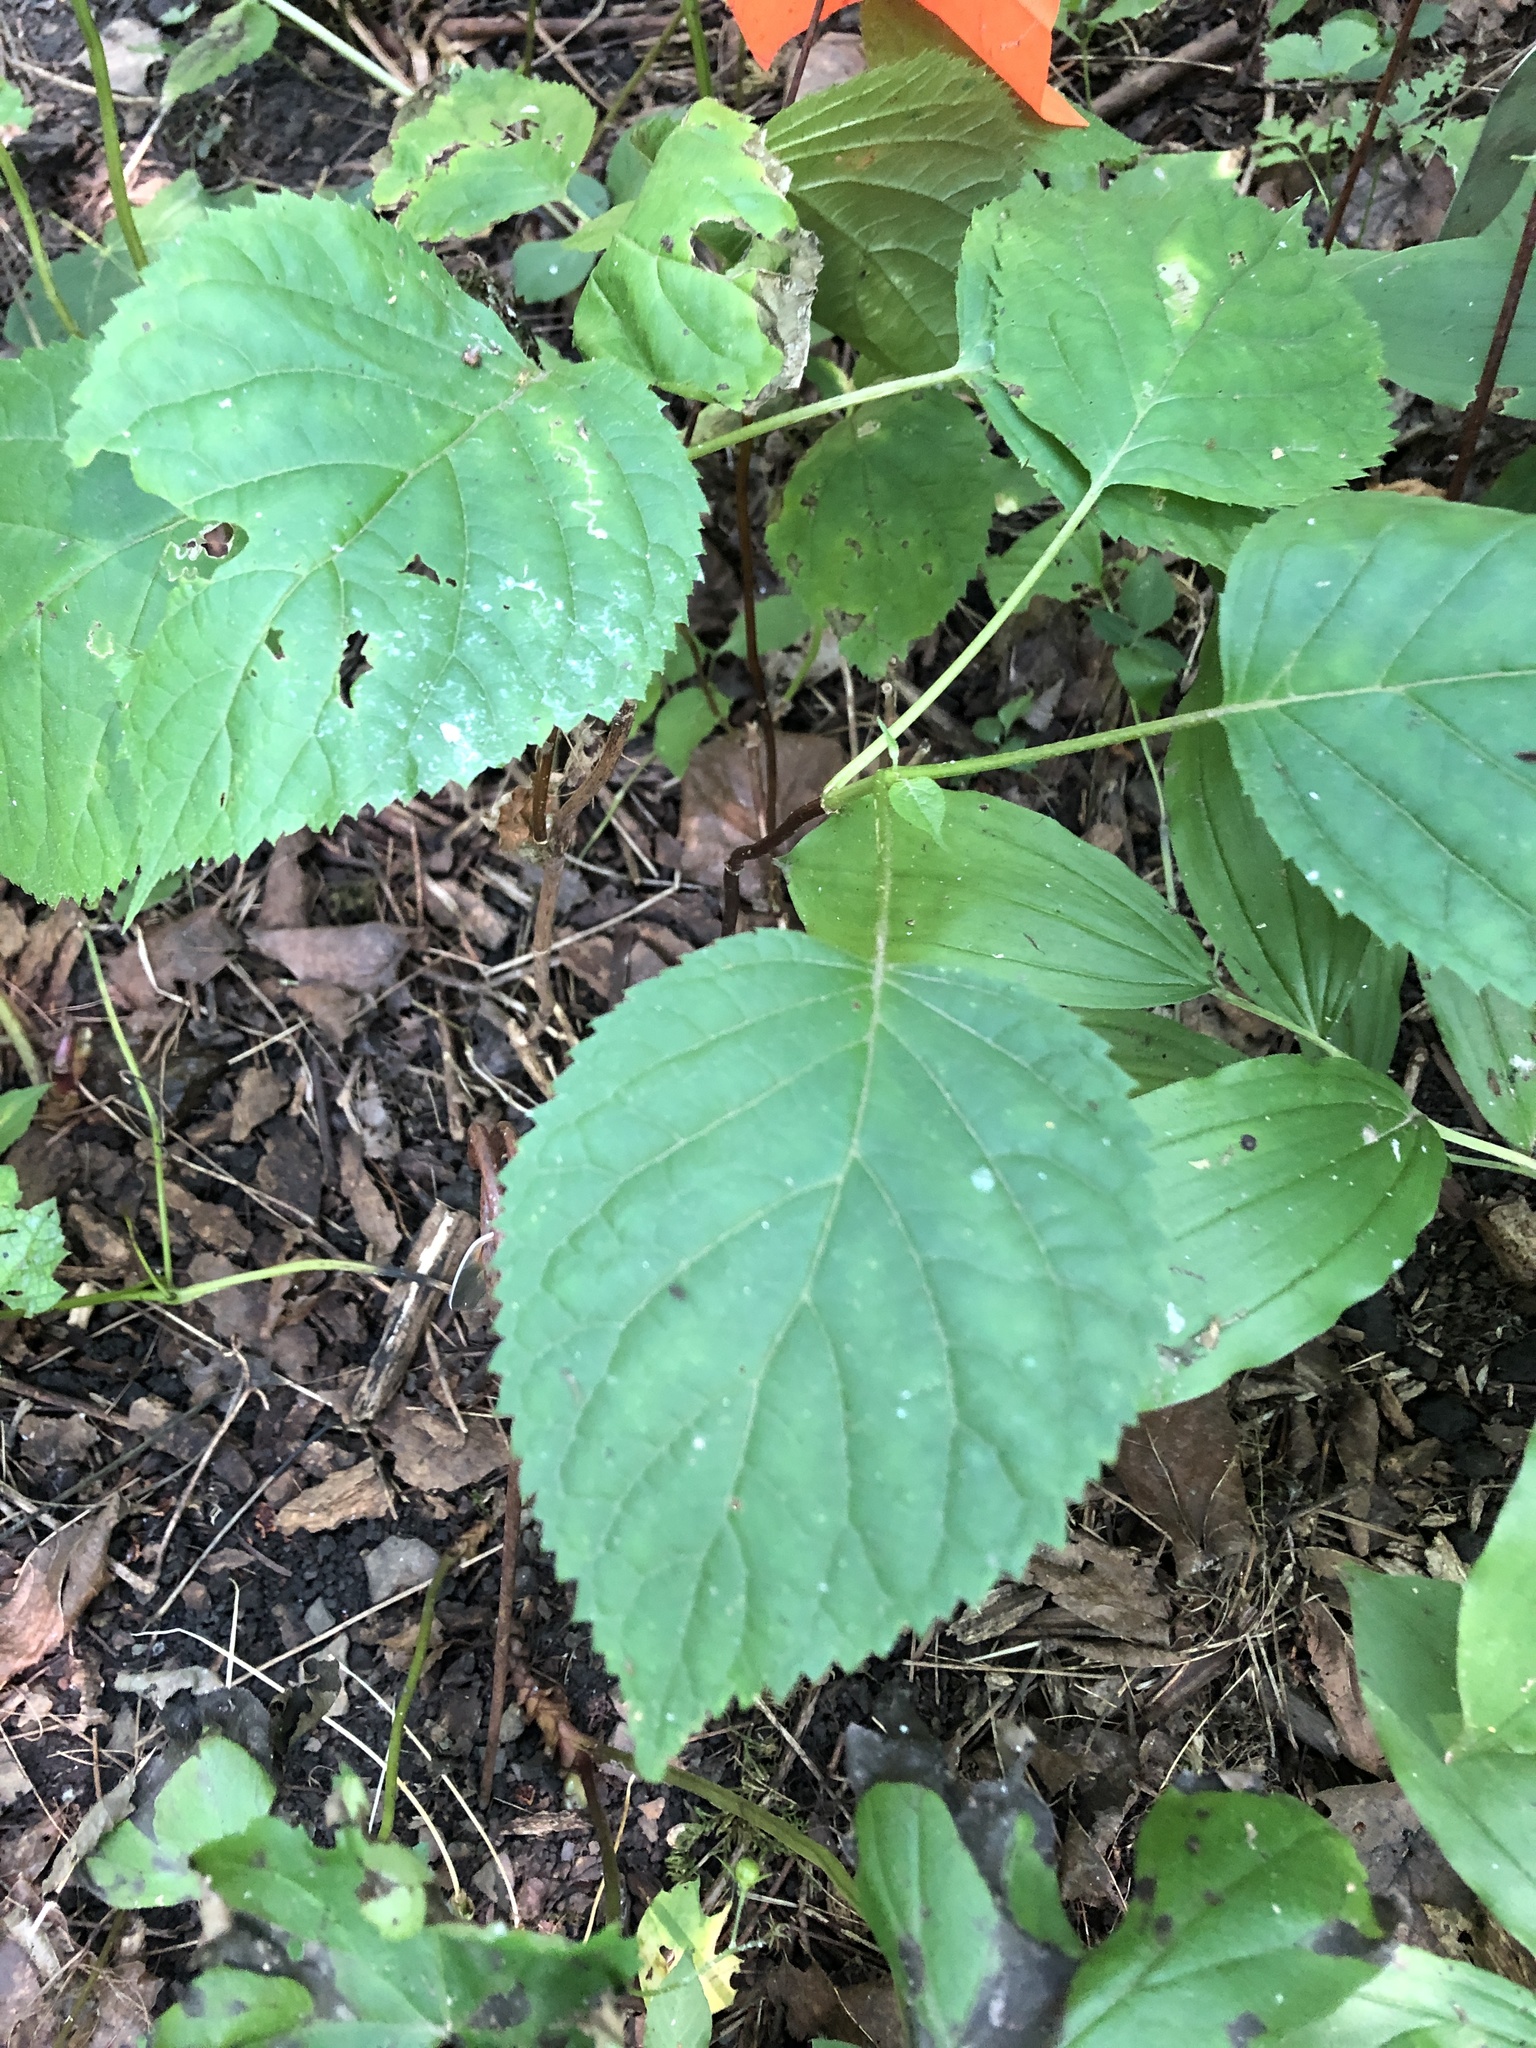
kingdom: Plantae
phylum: Tracheophyta
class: Magnoliopsida
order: Cornales
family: Hydrangeaceae
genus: Hydrangea
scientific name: Hydrangea arborescens
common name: Sevenbark
